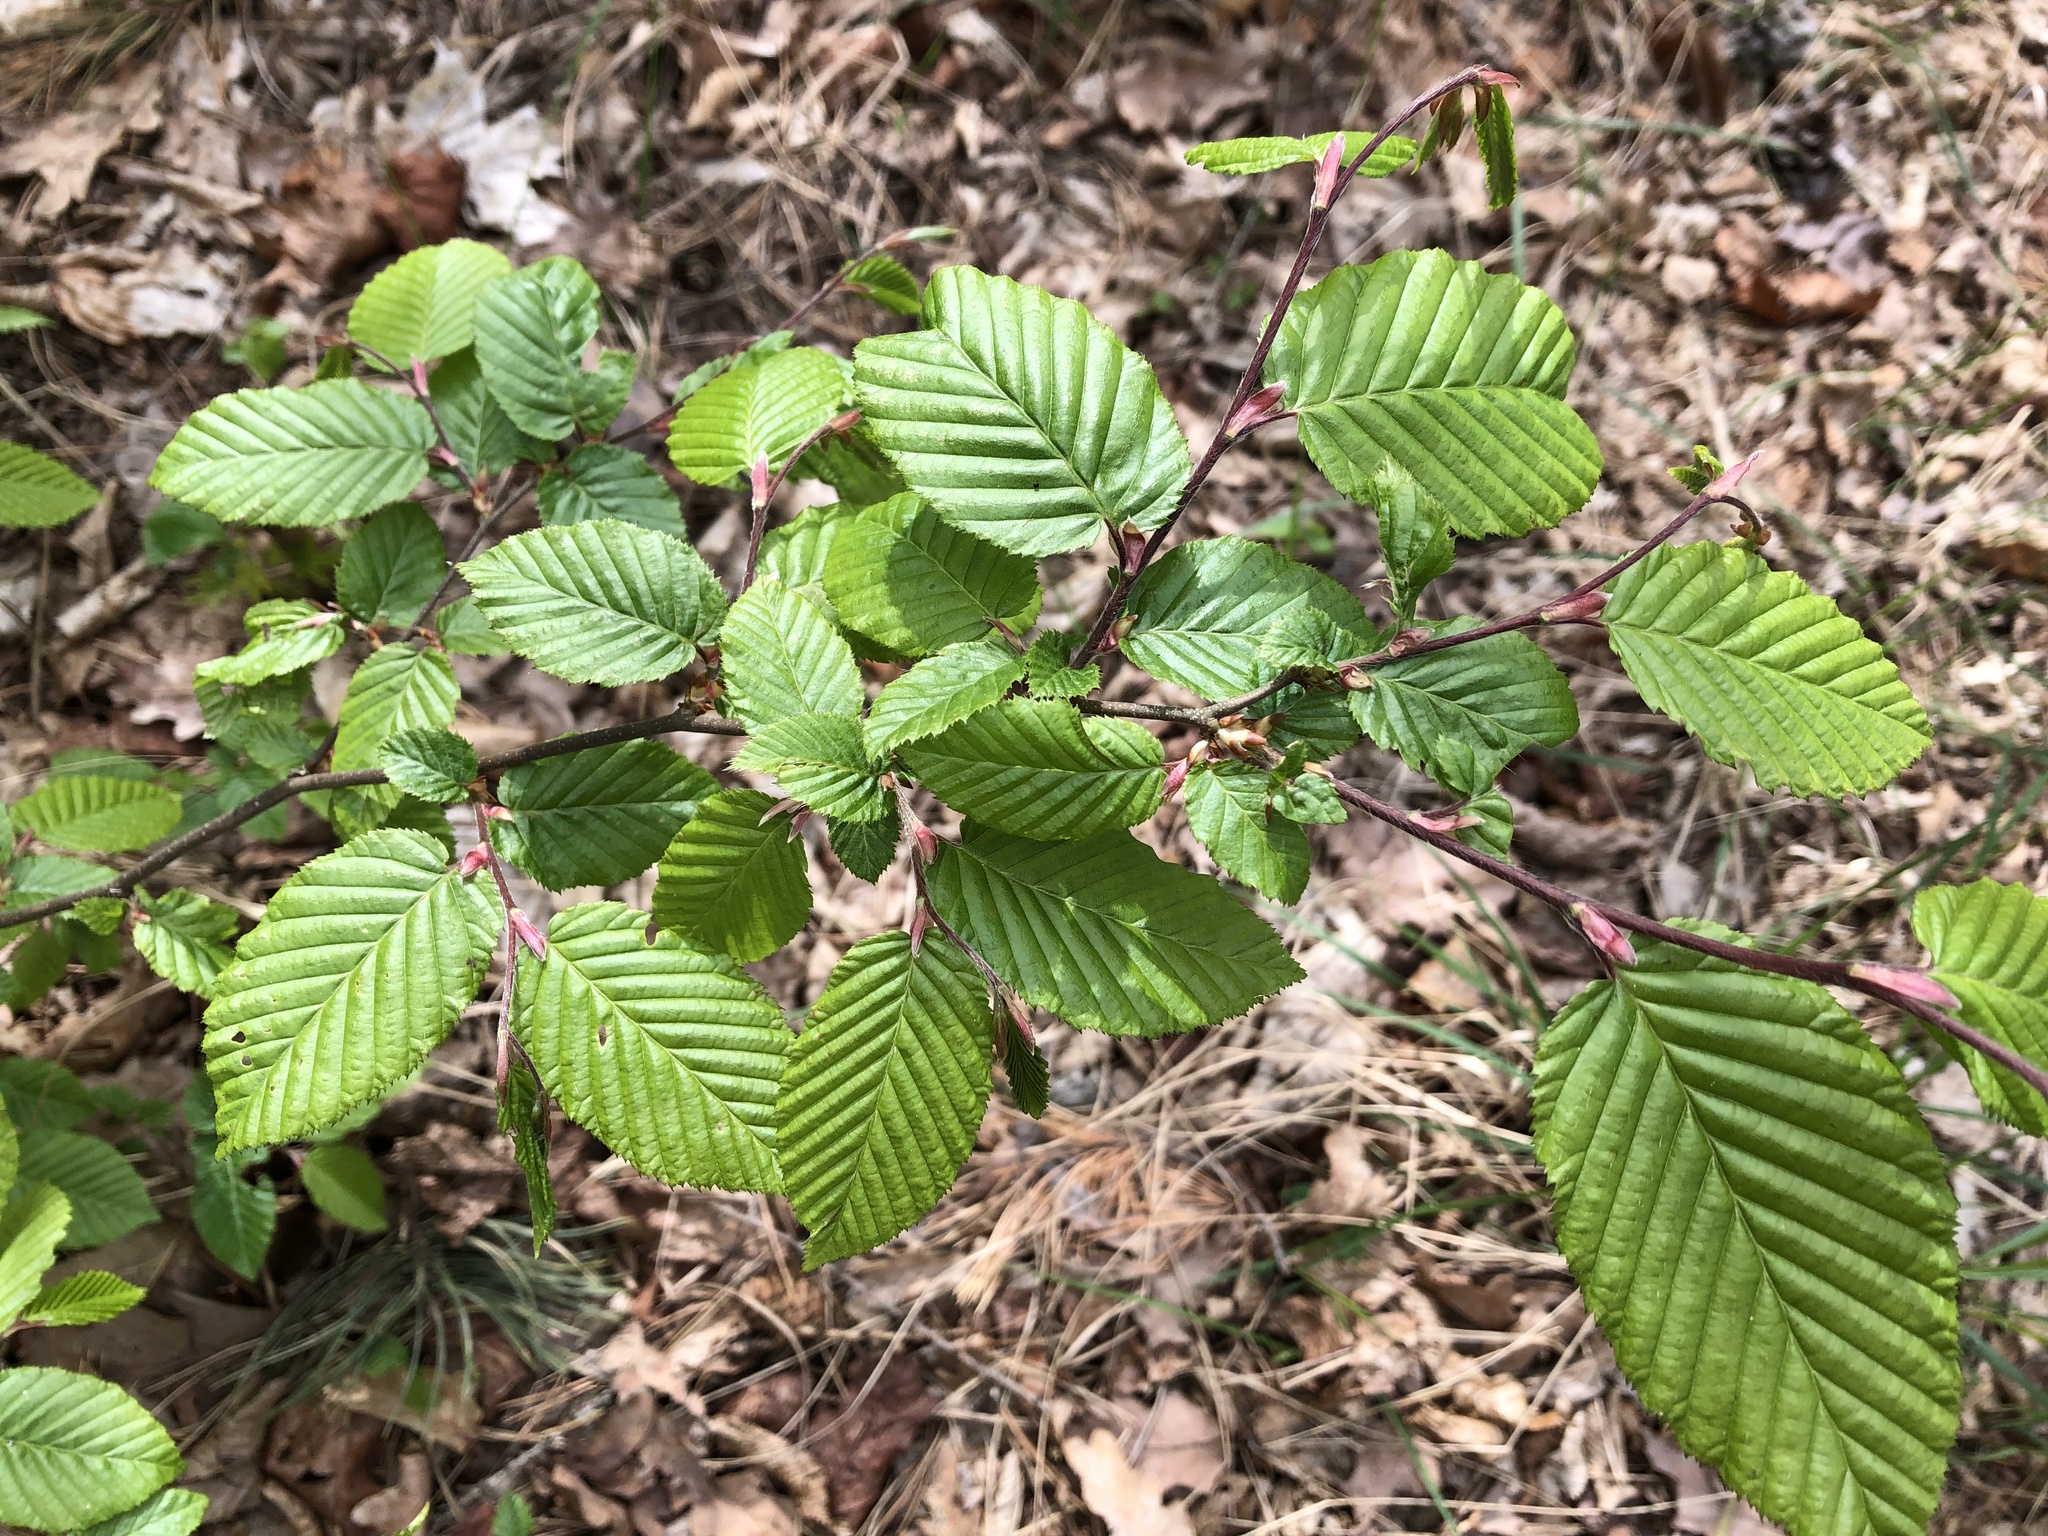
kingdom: Plantae
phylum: Tracheophyta
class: Magnoliopsida
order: Fagales
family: Betulaceae
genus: Carpinus
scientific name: Carpinus betulus
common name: Hornbeam
